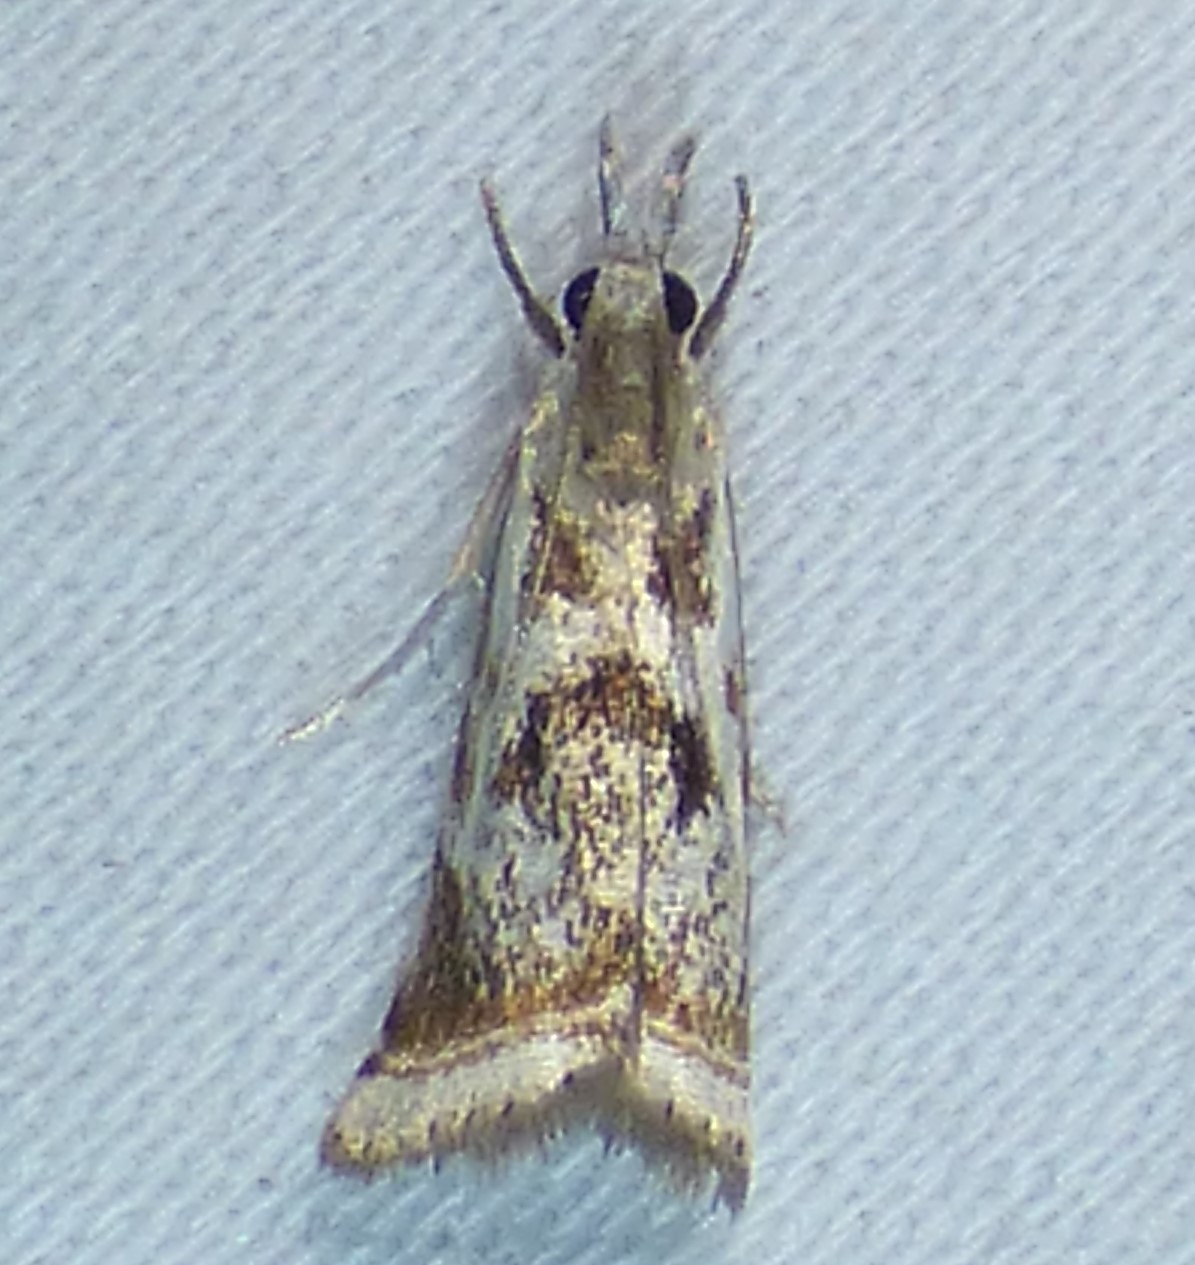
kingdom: Animalia
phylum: Arthropoda
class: Insecta
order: Lepidoptera
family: Crambidae
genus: Microcrambus
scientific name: Microcrambus elegans
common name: Elegant grass-veneer
